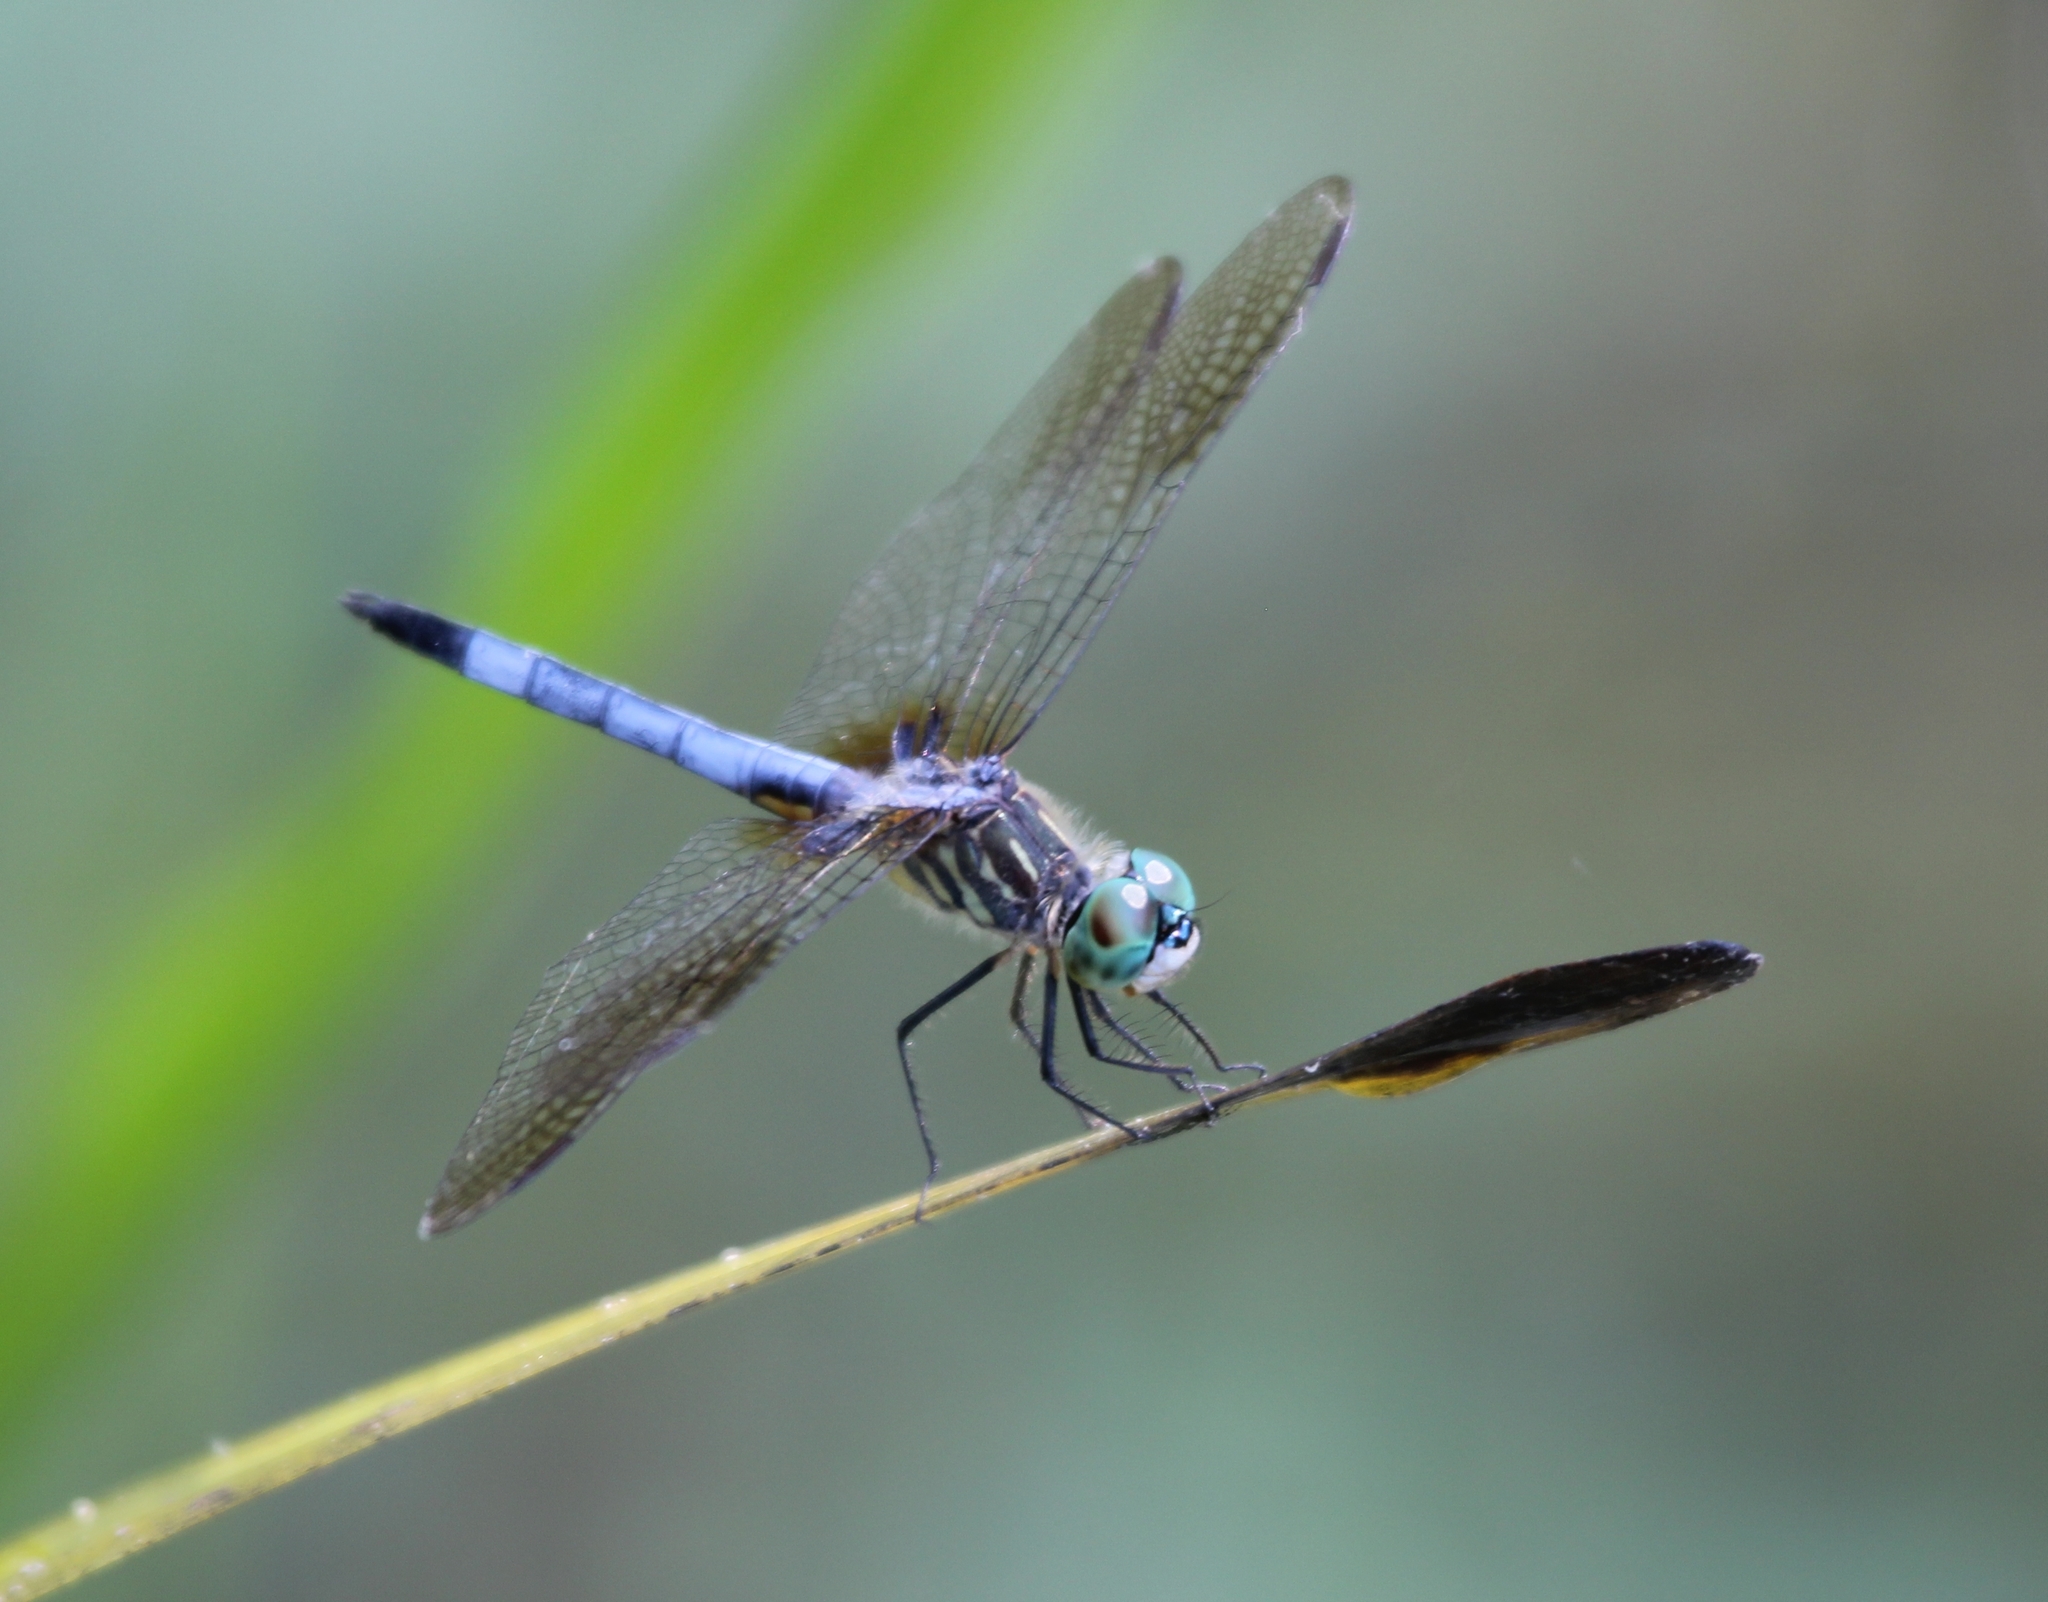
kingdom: Animalia
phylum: Arthropoda
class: Insecta
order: Odonata
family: Libellulidae
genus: Pachydiplax
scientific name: Pachydiplax longipennis
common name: Blue dasher
